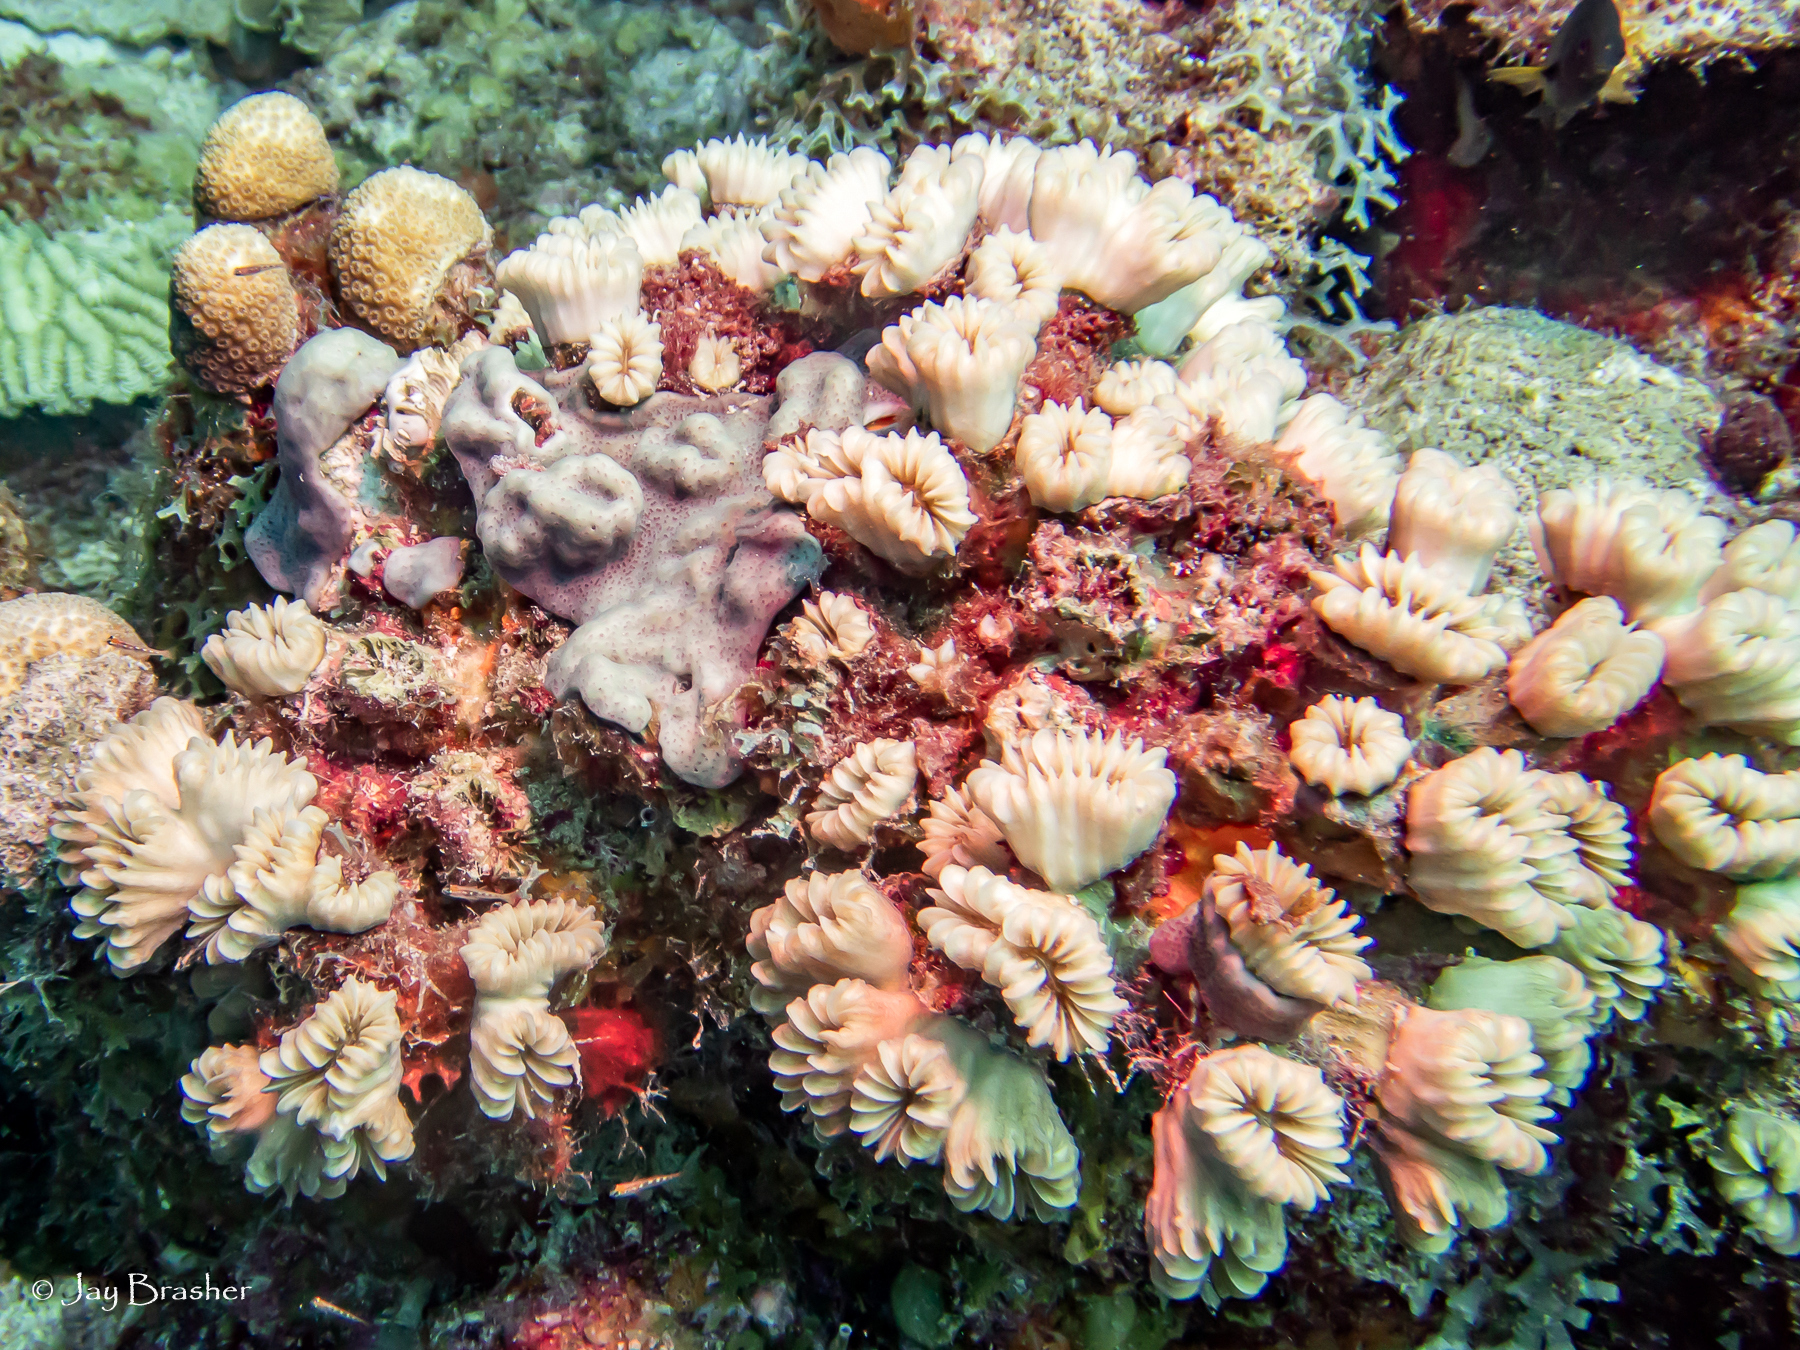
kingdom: Animalia
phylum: Cnidaria
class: Anthozoa
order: Scleractinia
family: Meandrinidae
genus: Eusmilia
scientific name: Eusmilia fastigiata
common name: Smooth flower coral
